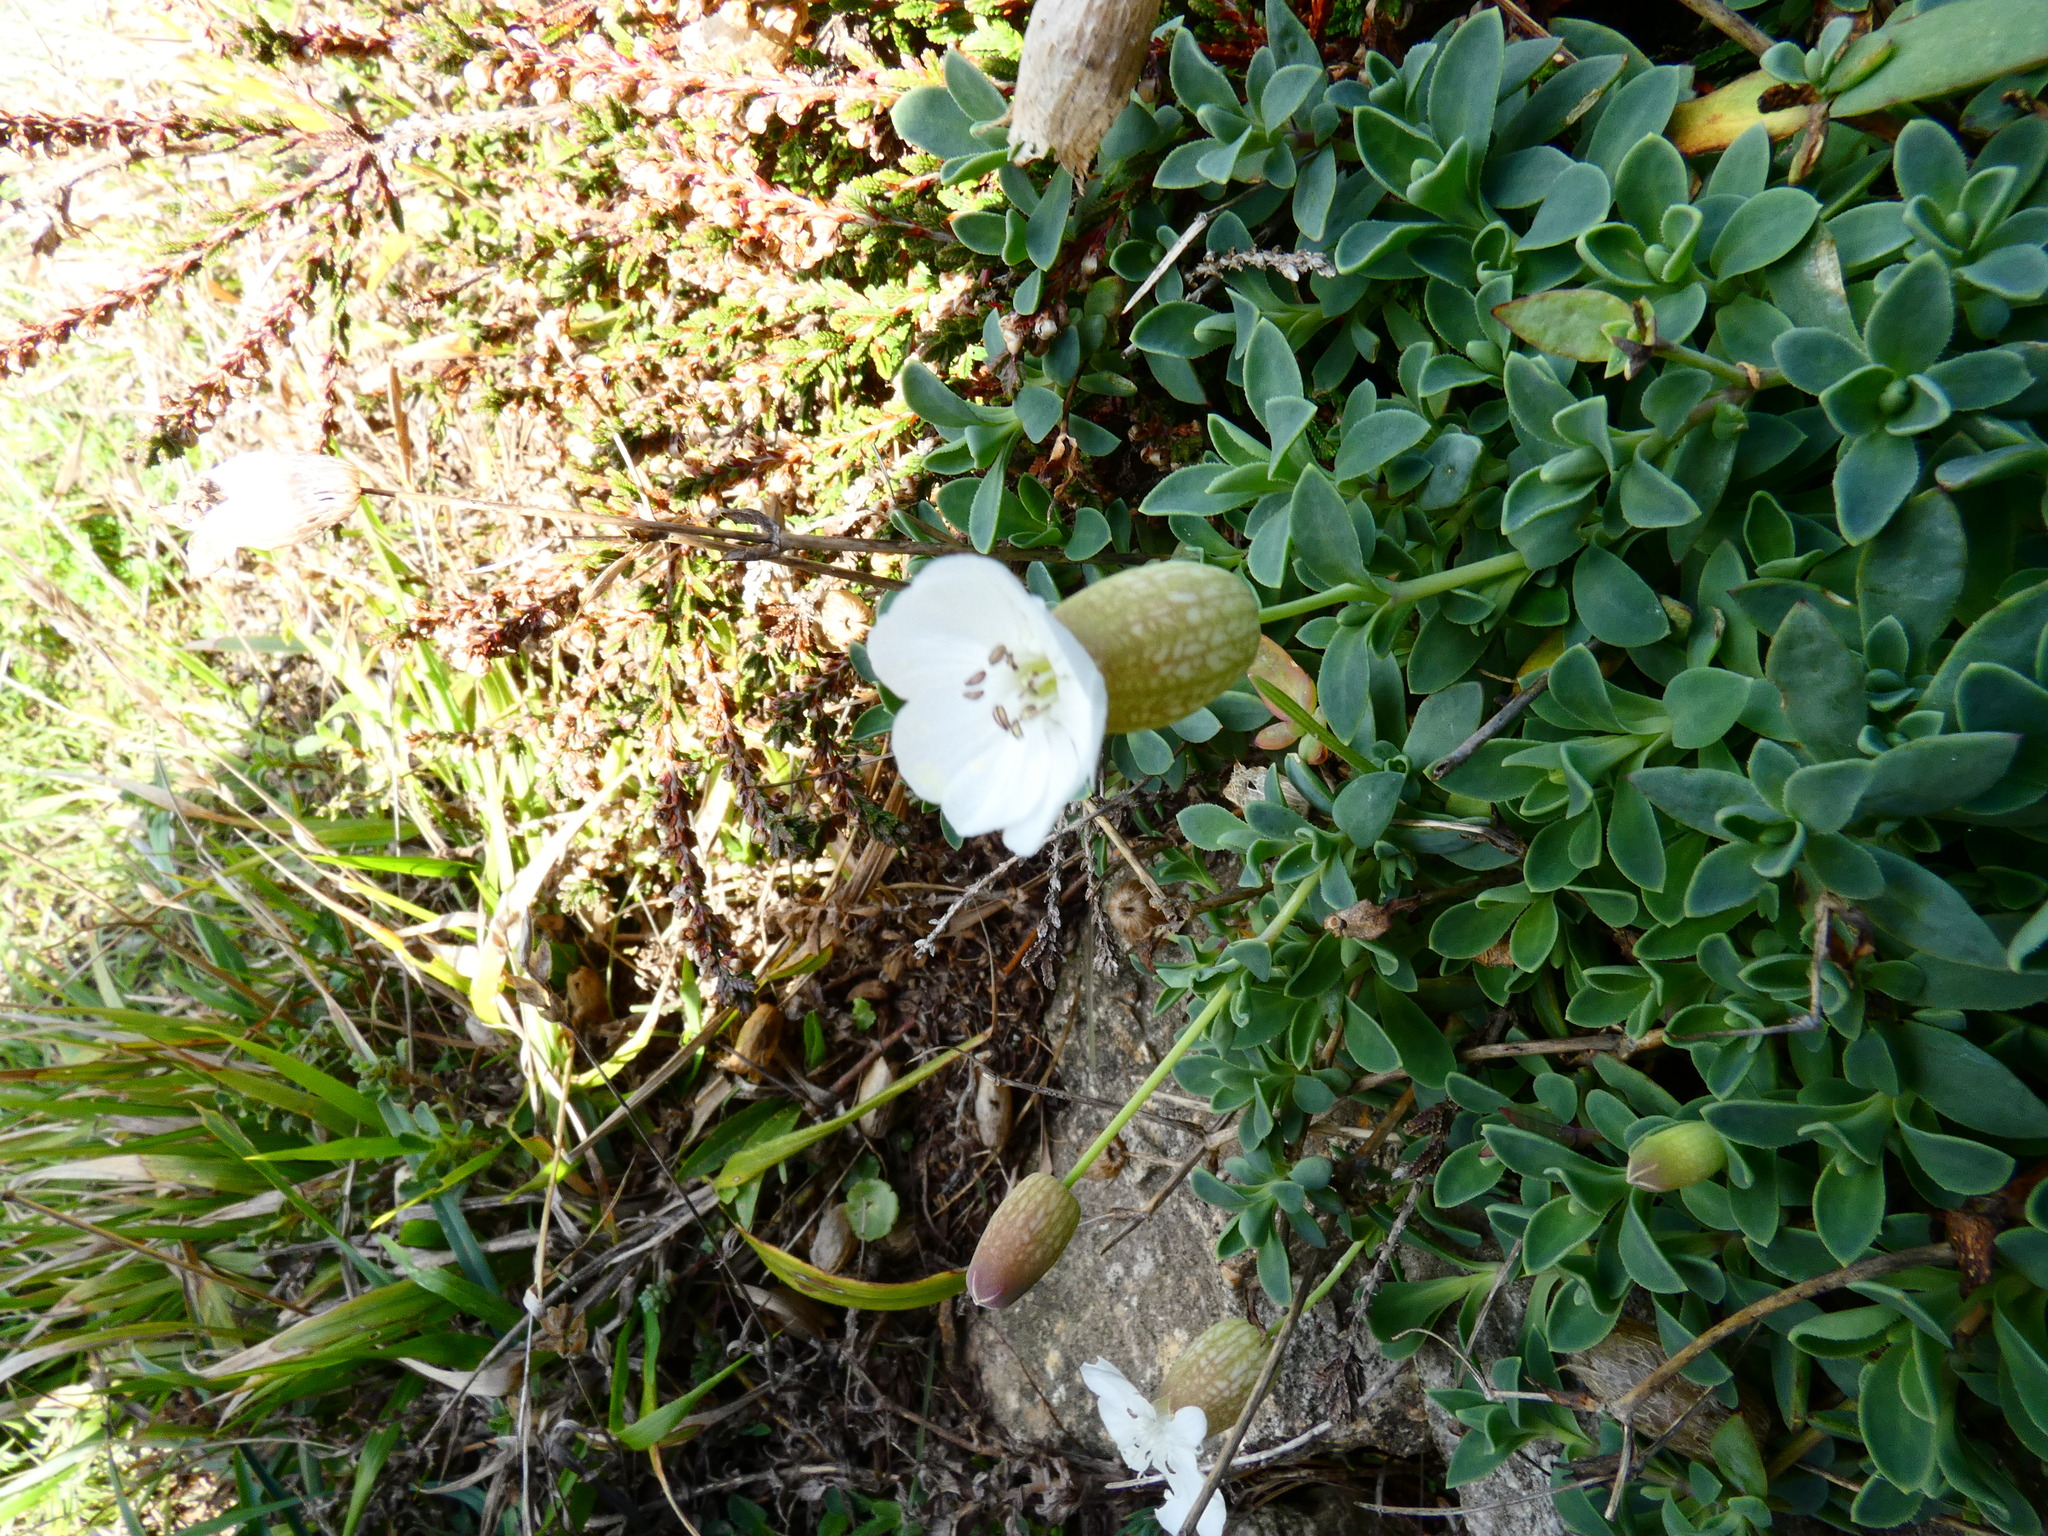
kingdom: Plantae
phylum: Tracheophyta
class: Magnoliopsida
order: Caryophyllales
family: Caryophyllaceae
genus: Silene
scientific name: Silene uniflora
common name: Sea campion
